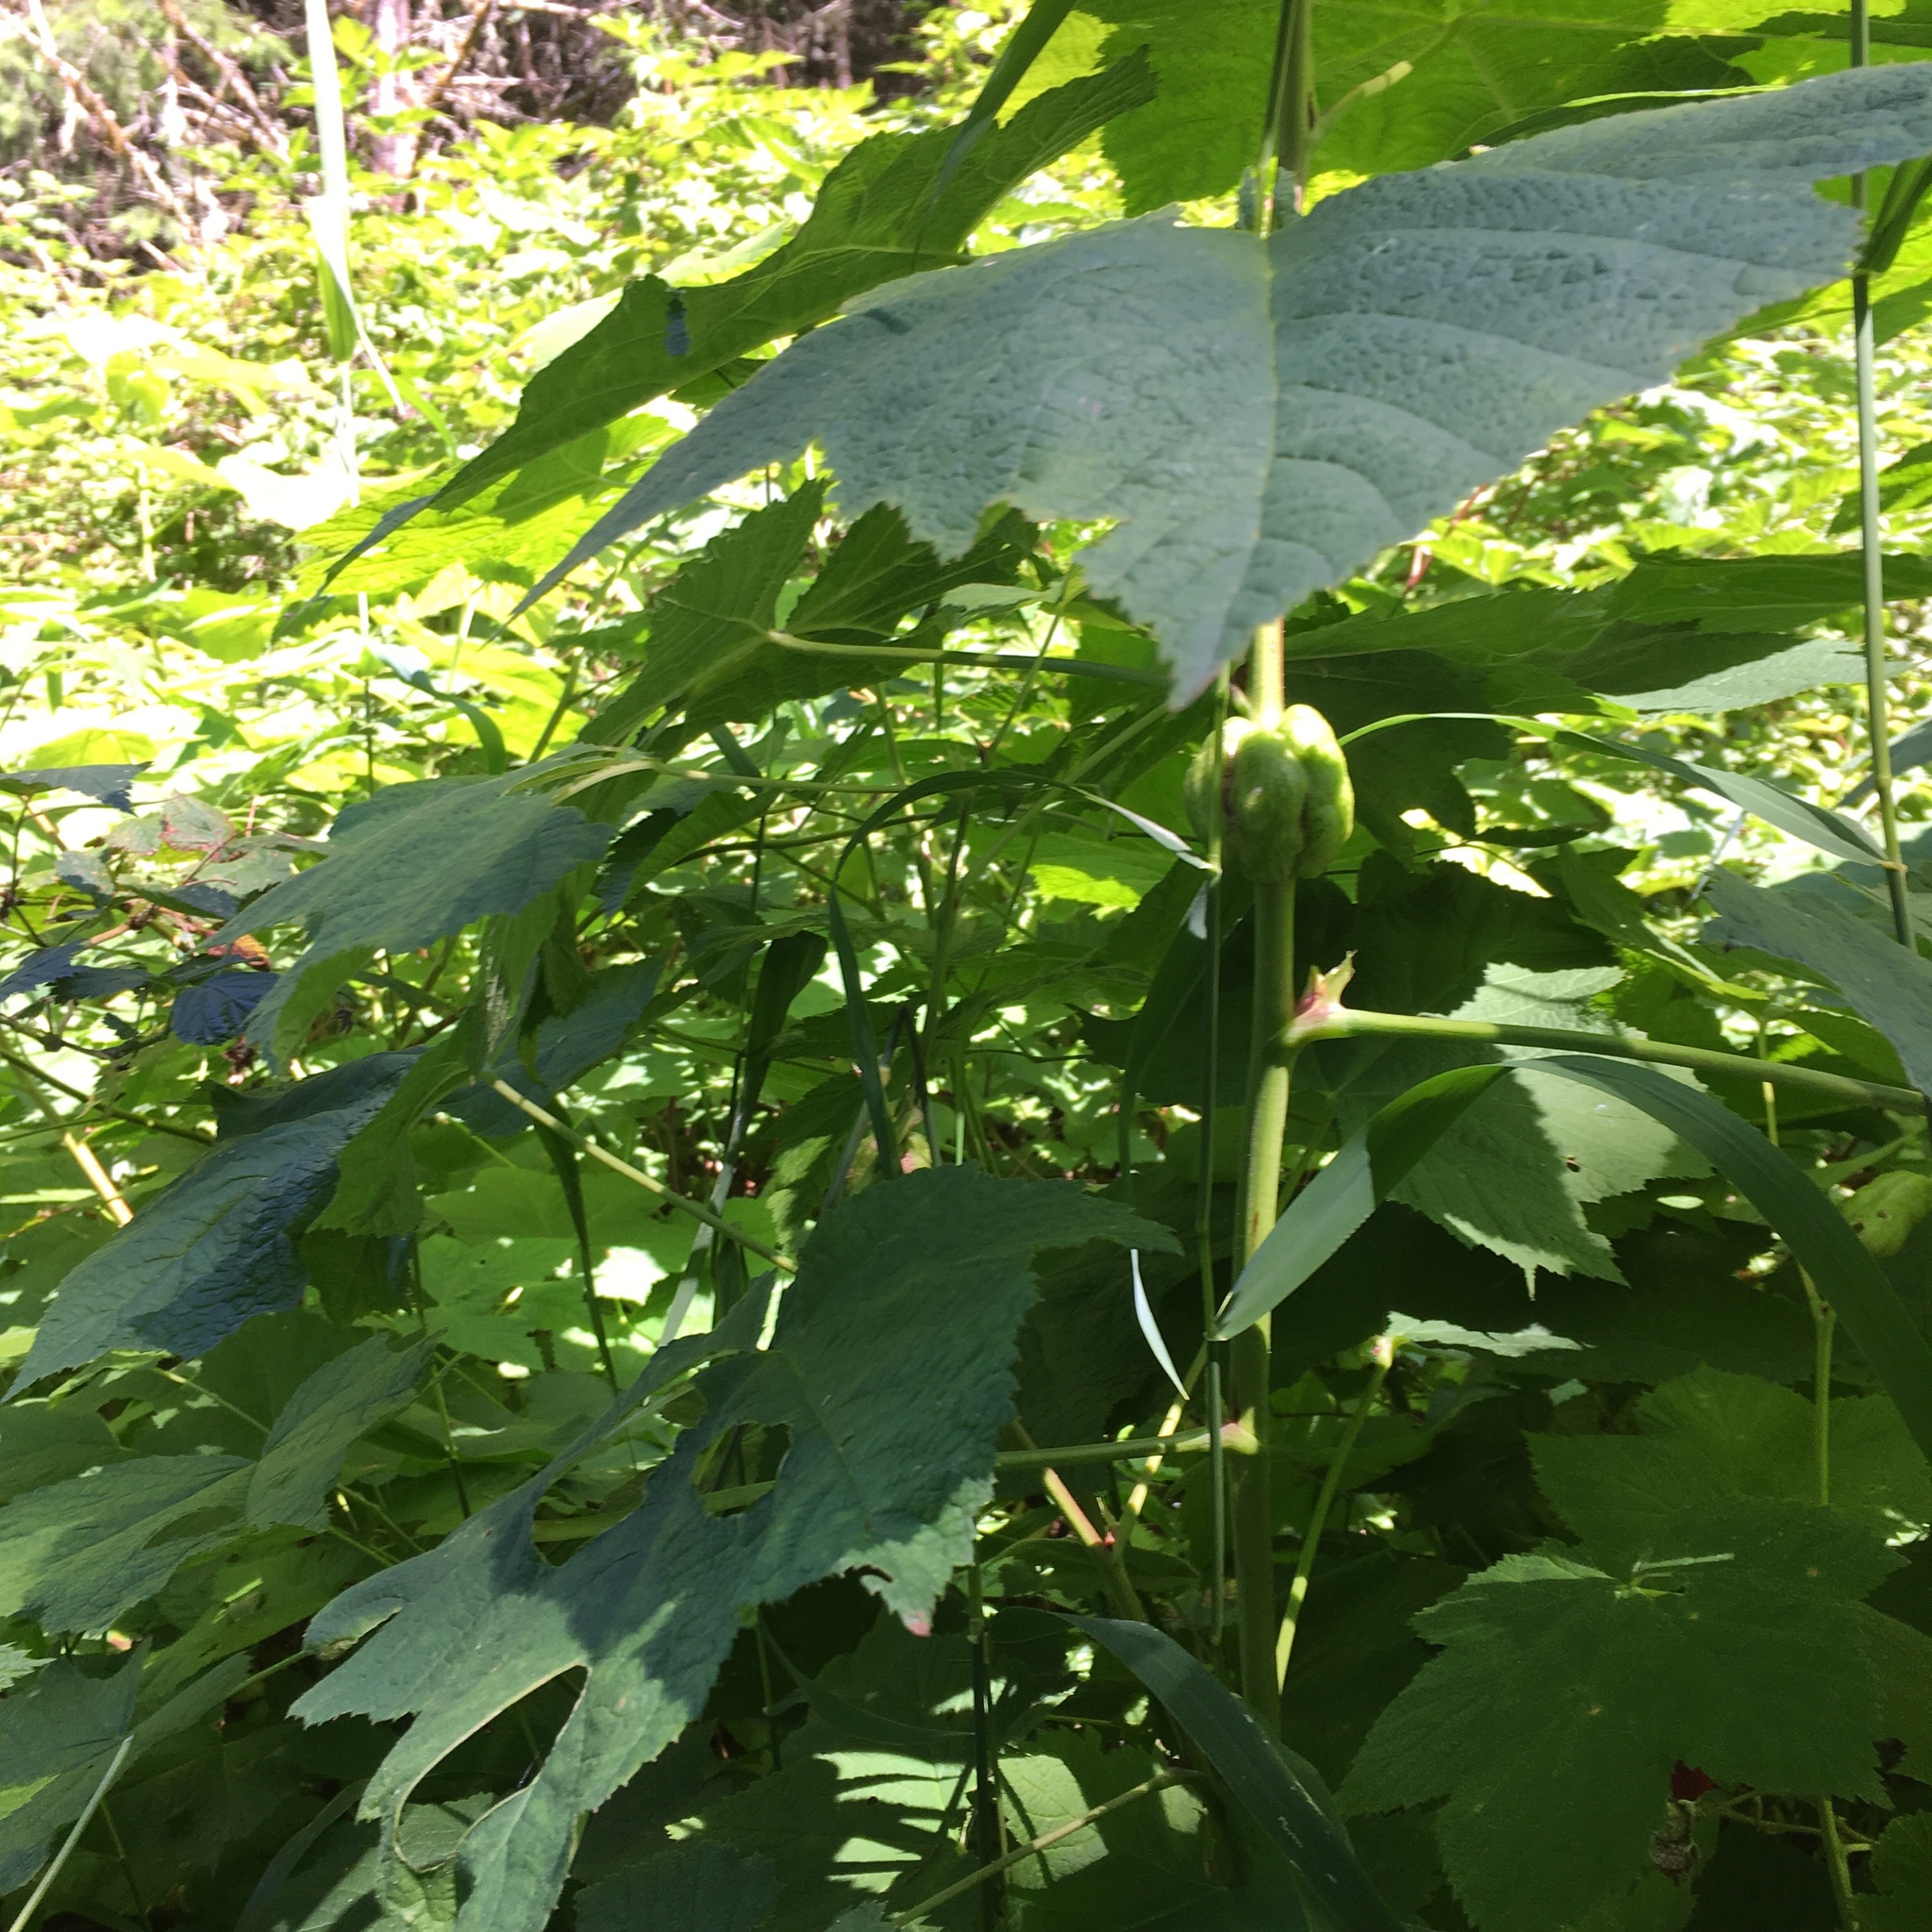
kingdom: Animalia
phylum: Arthropoda
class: Insecta
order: Hymenoptera
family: Cynipidae
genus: Diastrophus
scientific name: Diastrophus
